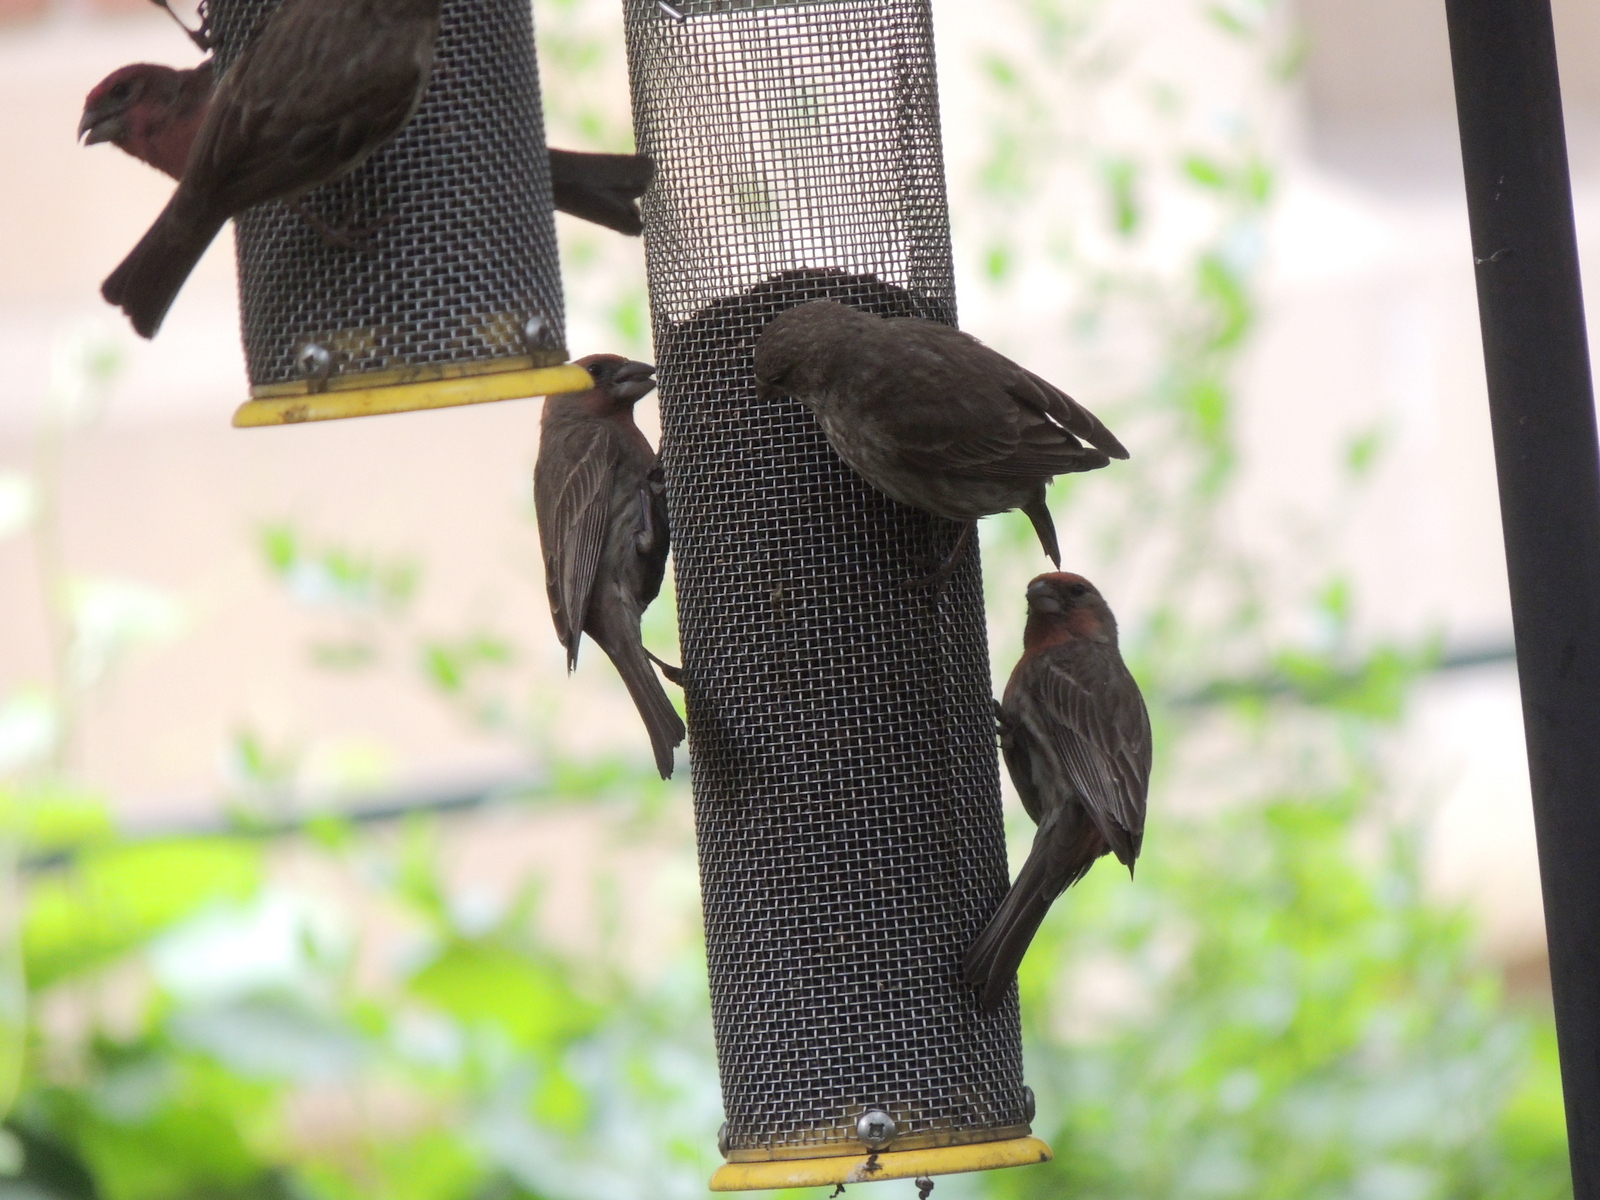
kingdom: Animalia
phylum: Chordata
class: Aves
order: Passeriformes
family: Fringillidae
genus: Haemorhous
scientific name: Haemorhous mexicanus
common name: House finch
